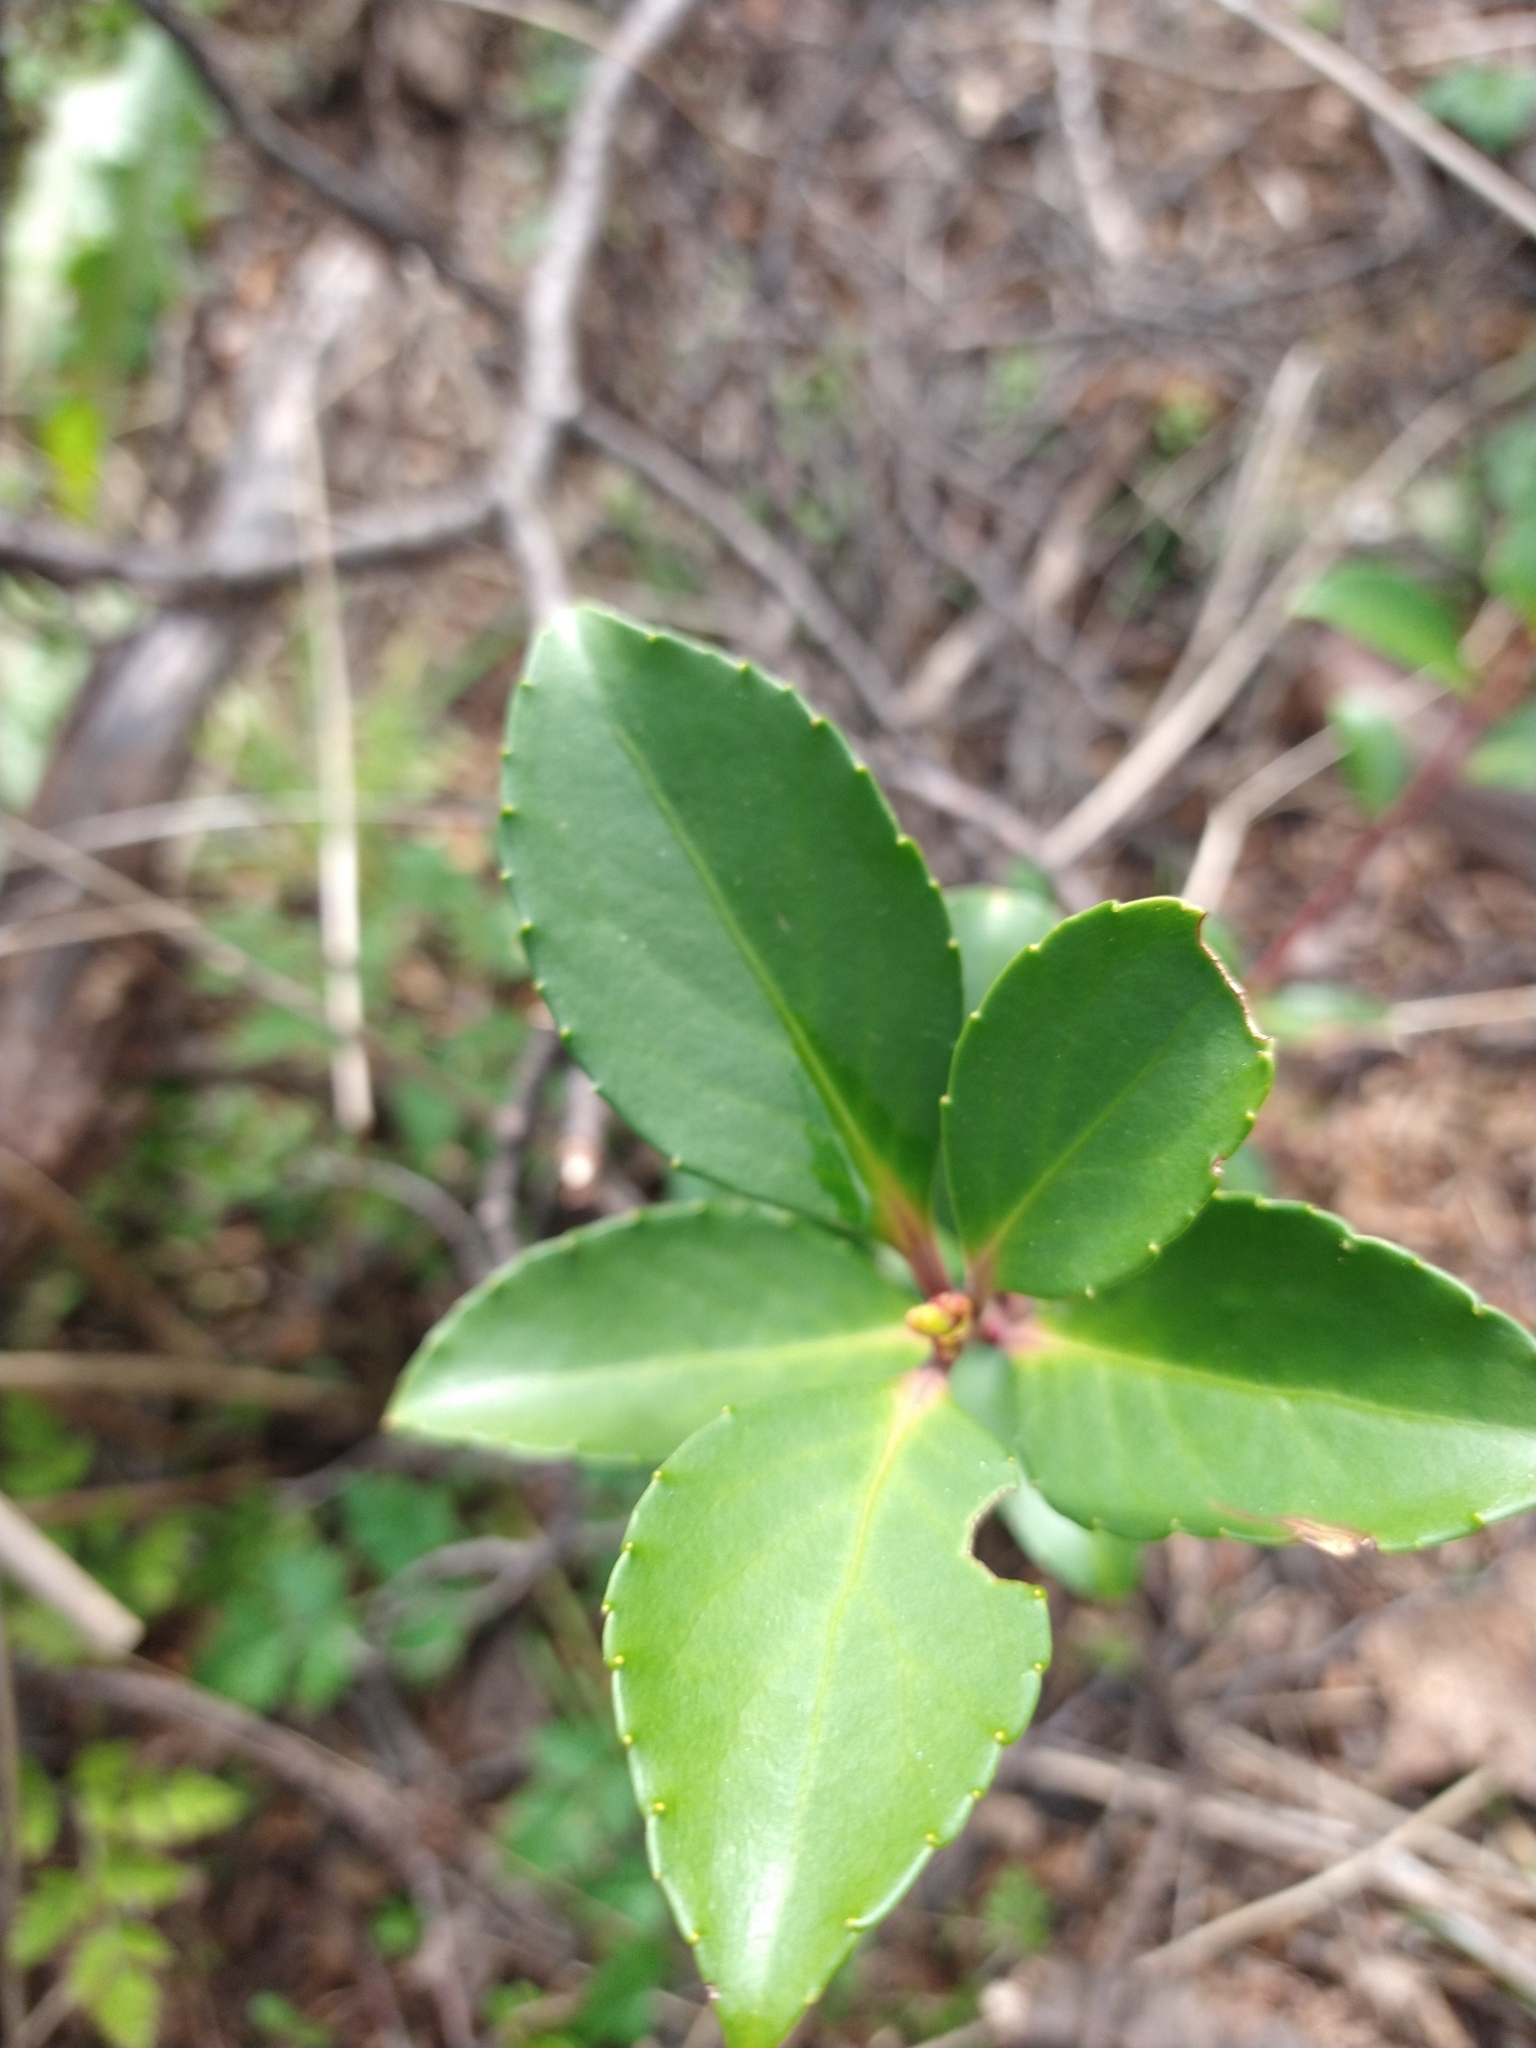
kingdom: Plantae
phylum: Tracheophyta
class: Magnoliopsida
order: Celastrales
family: Celastraceae
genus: Maytenus
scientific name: Maytenus magellanica
